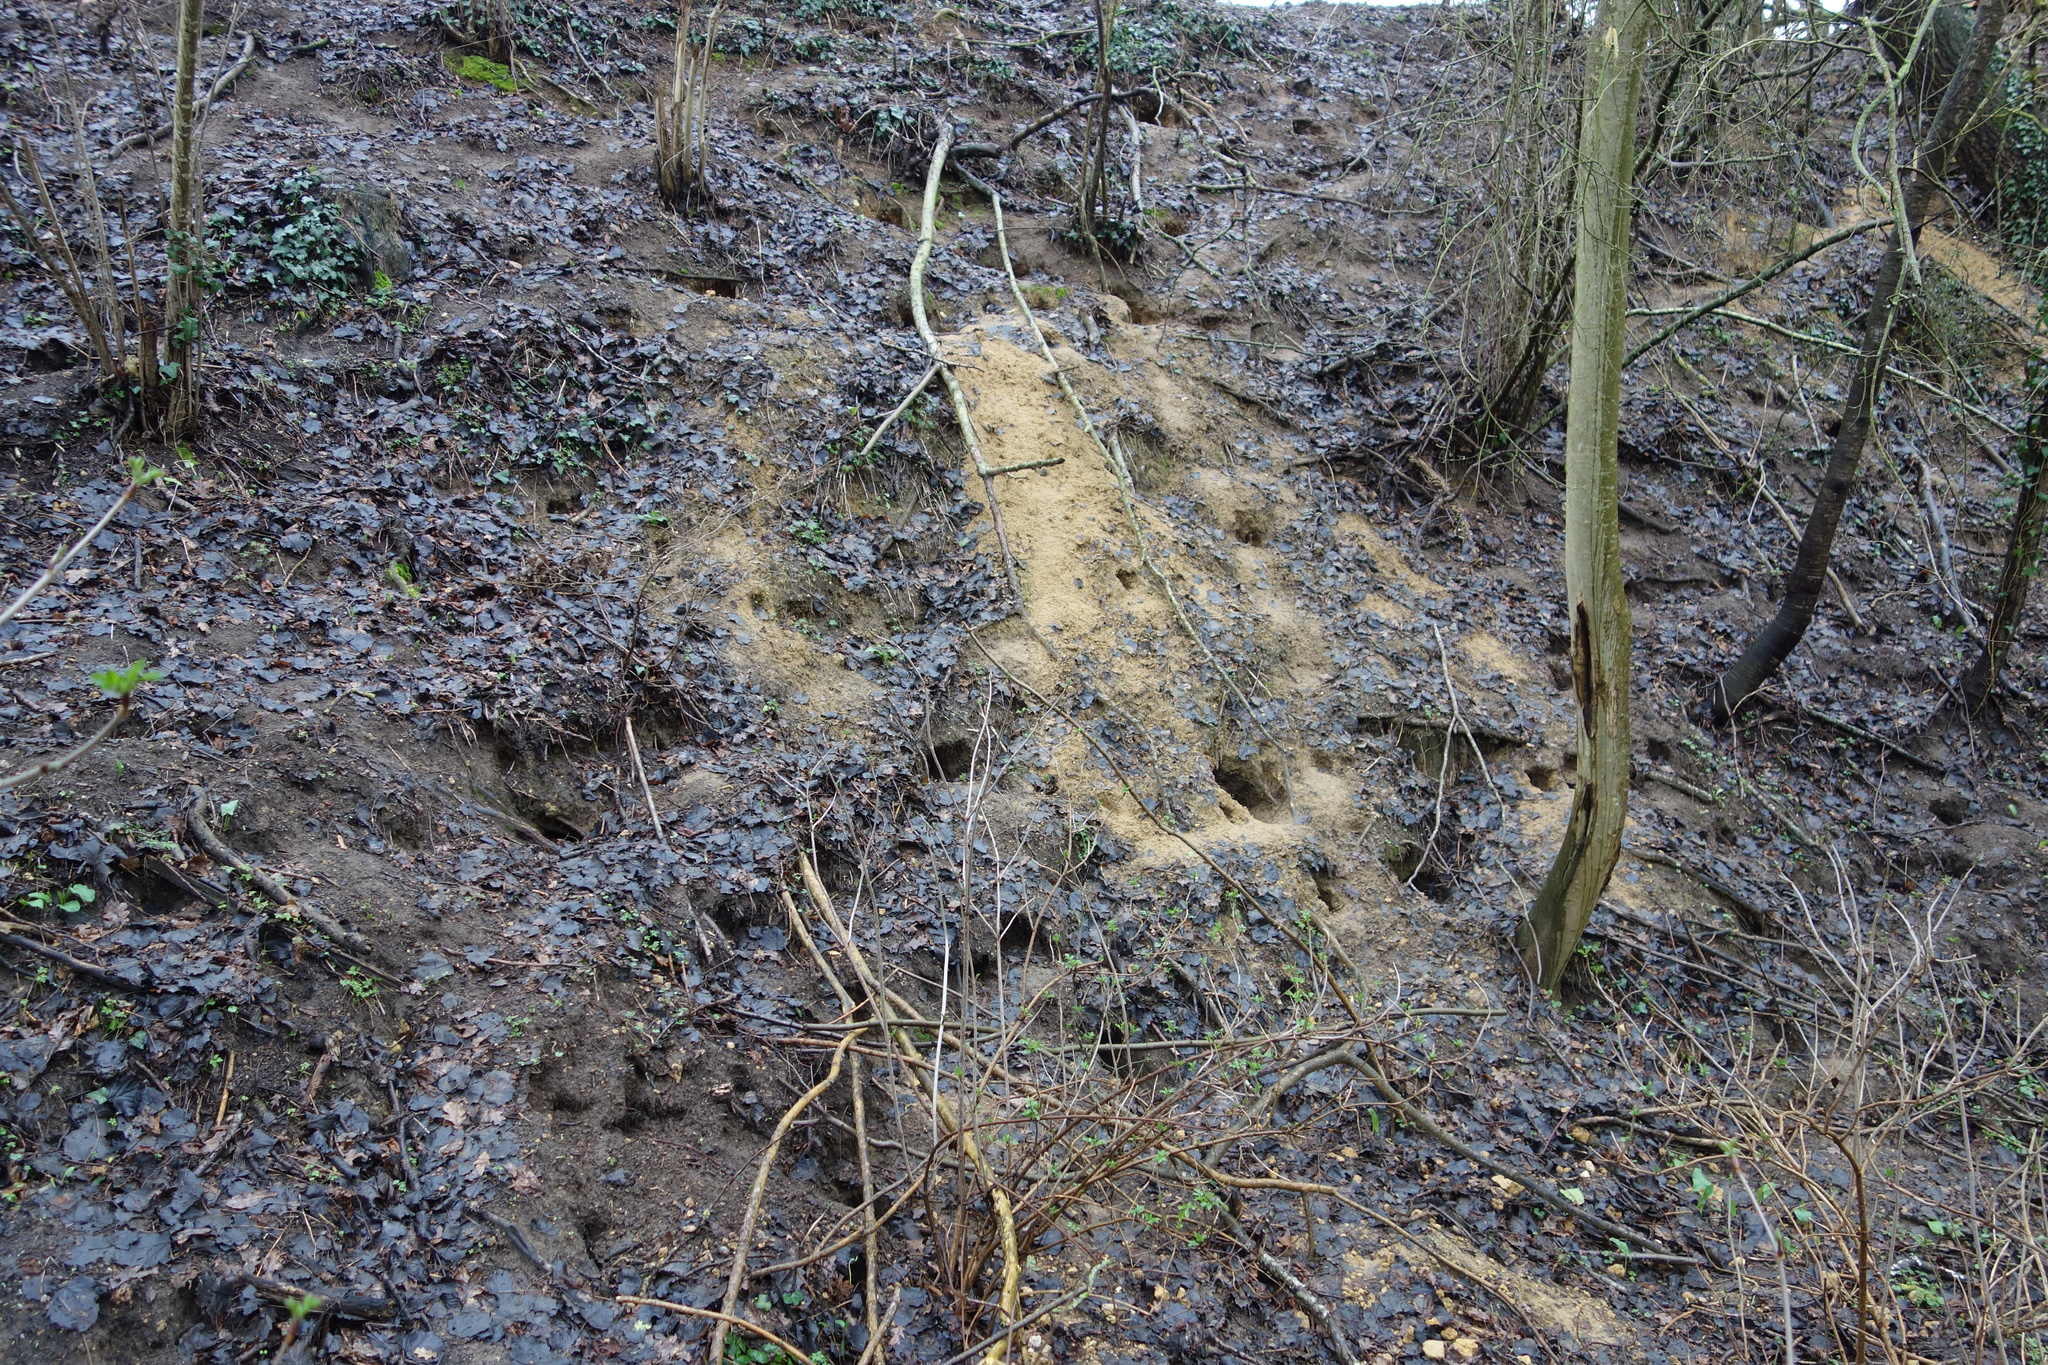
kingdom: Animalia
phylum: Chordata
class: Mammalia
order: Lagomorpha
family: Leporidae
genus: Oryctolagus
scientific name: Oryctolagus cuniculus
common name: European rabbit
